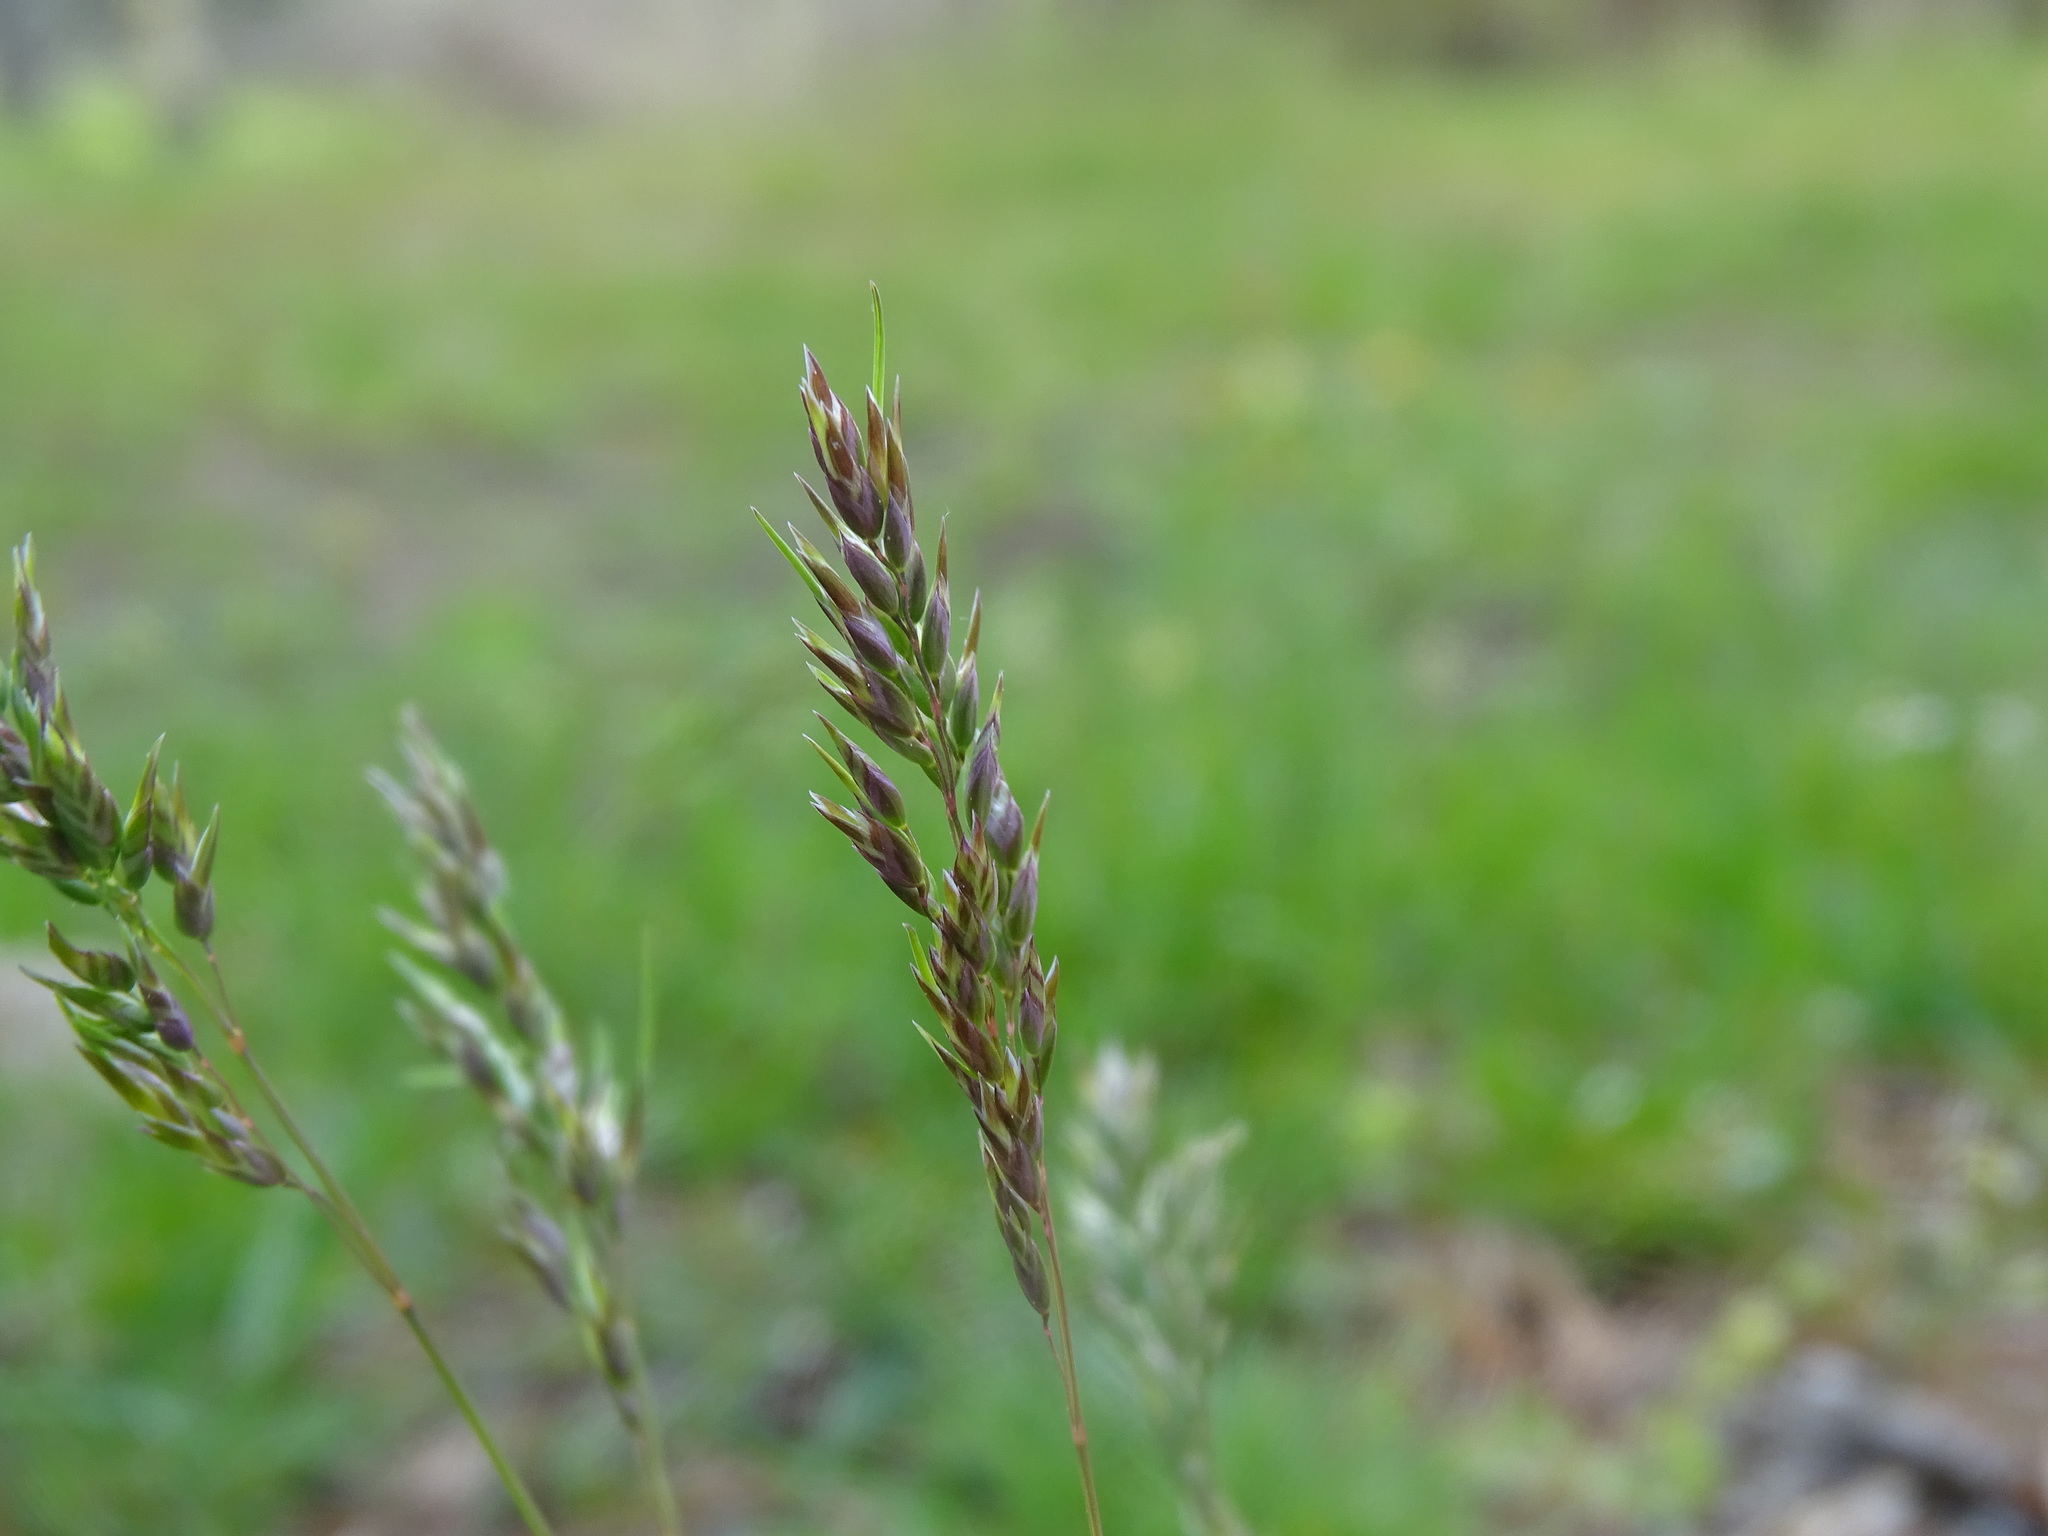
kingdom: Plantae
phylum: Tracheophyta
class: Liliopsida
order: Poales
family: Poaceae
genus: Poa
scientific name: Poa bulbosa
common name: Bulbous bluegrass
